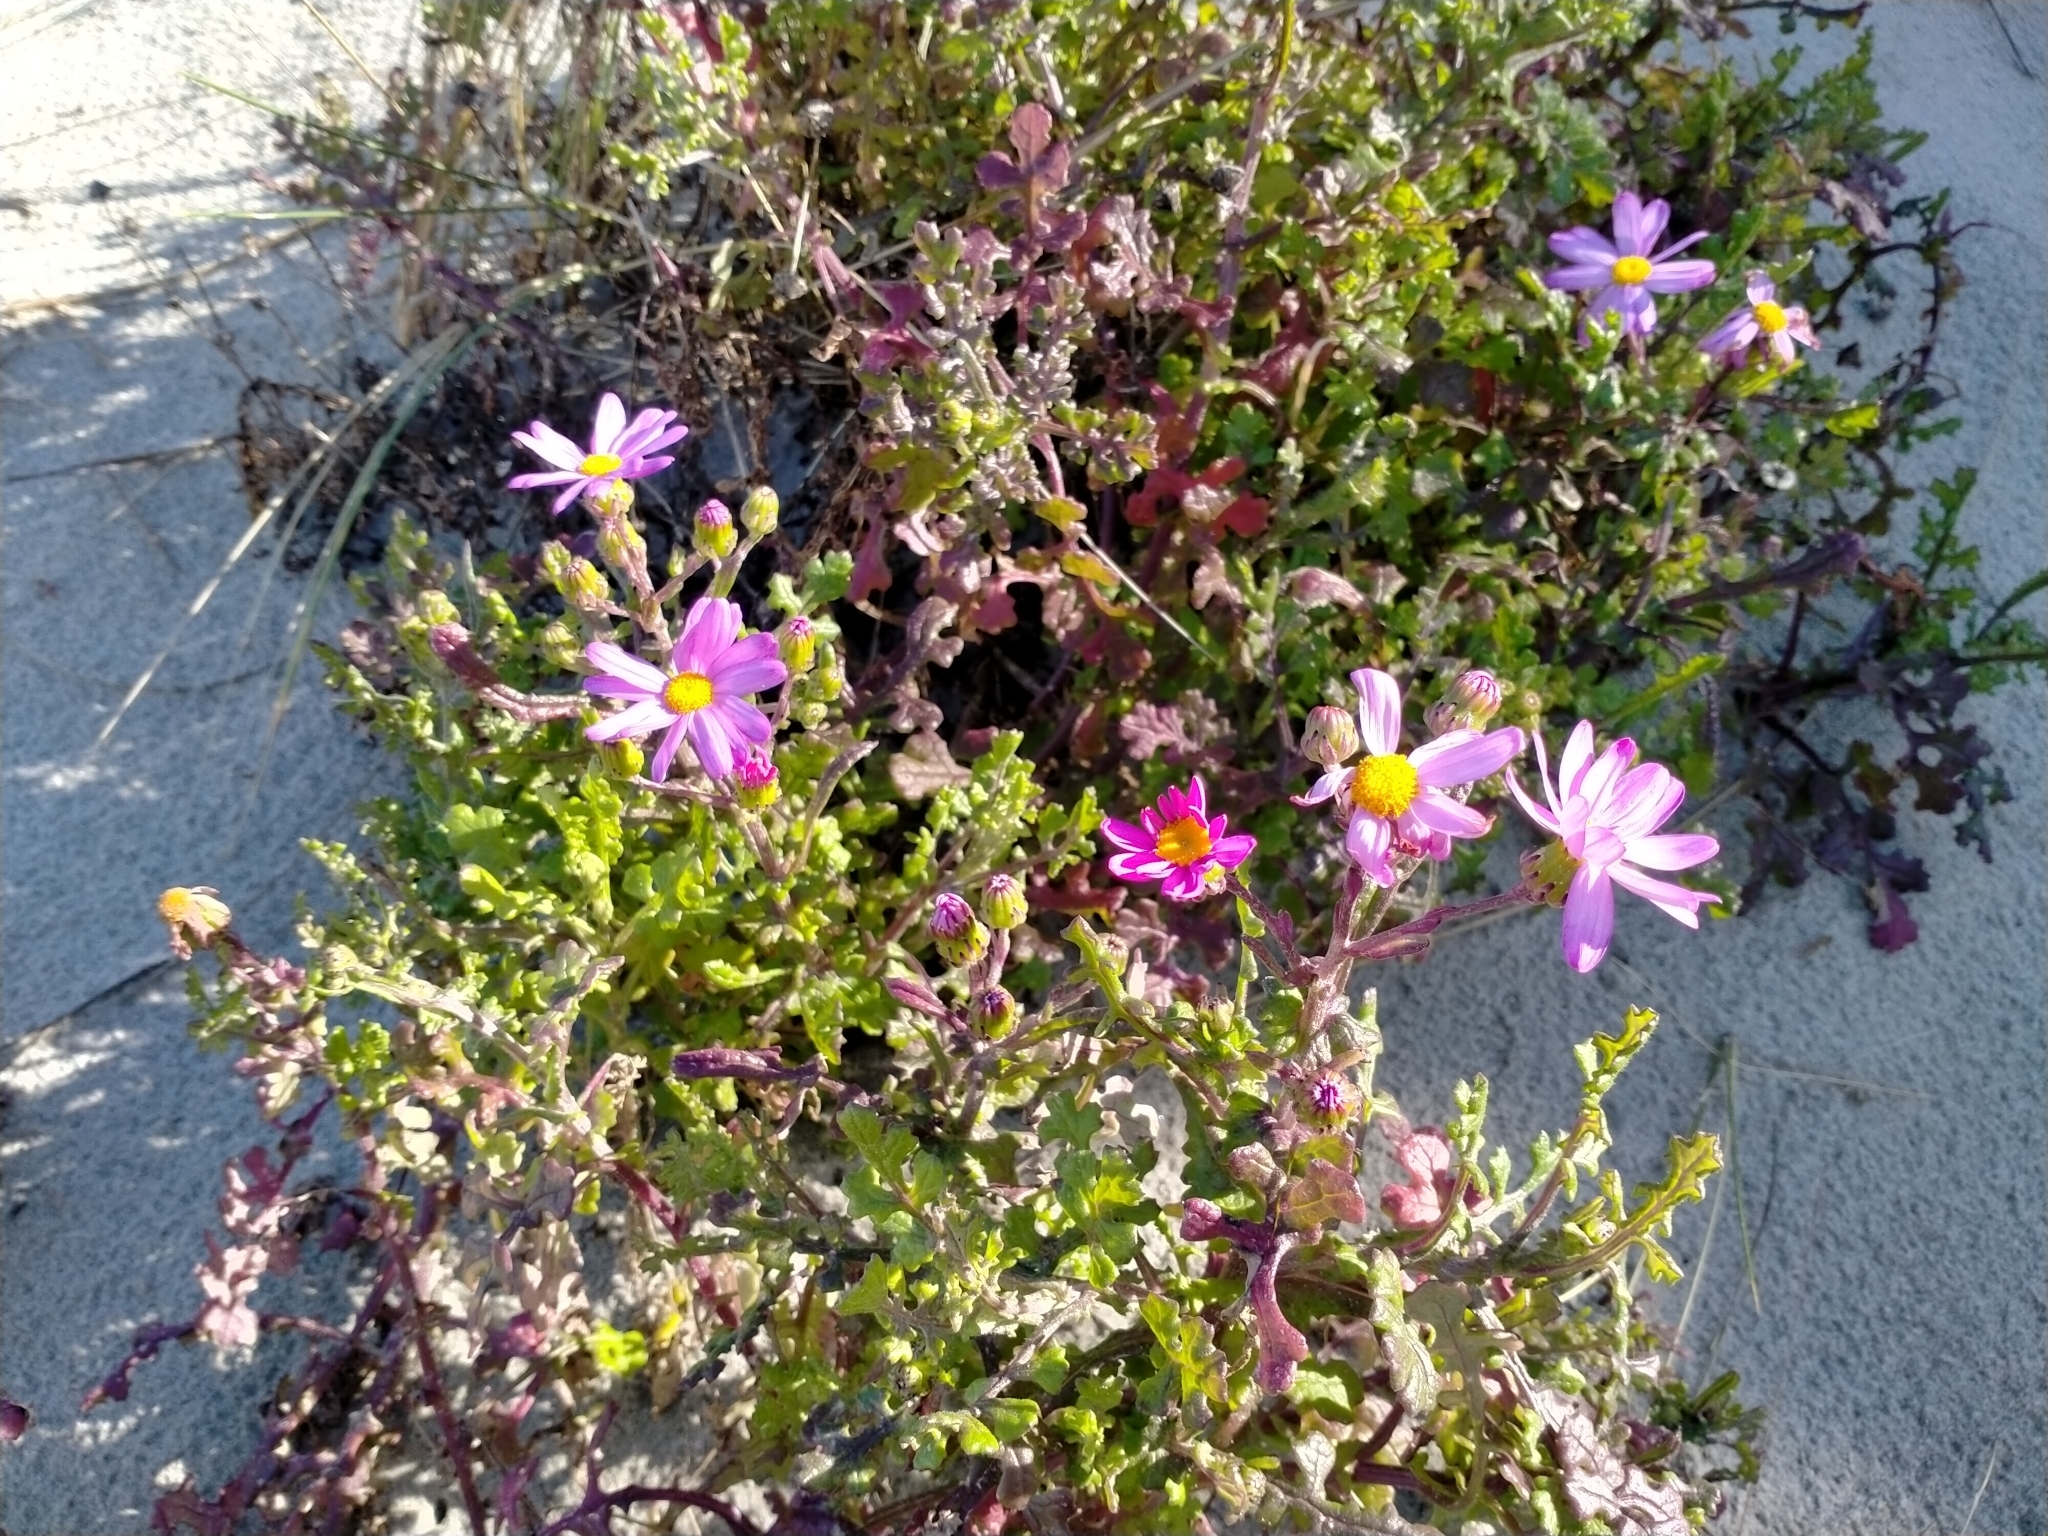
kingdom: Plantae
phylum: Tracheophyta
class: Magnoliopsida
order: Asterales
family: Asteraceae
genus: Senecio
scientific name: Senecio elegans
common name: Purple groundsel
